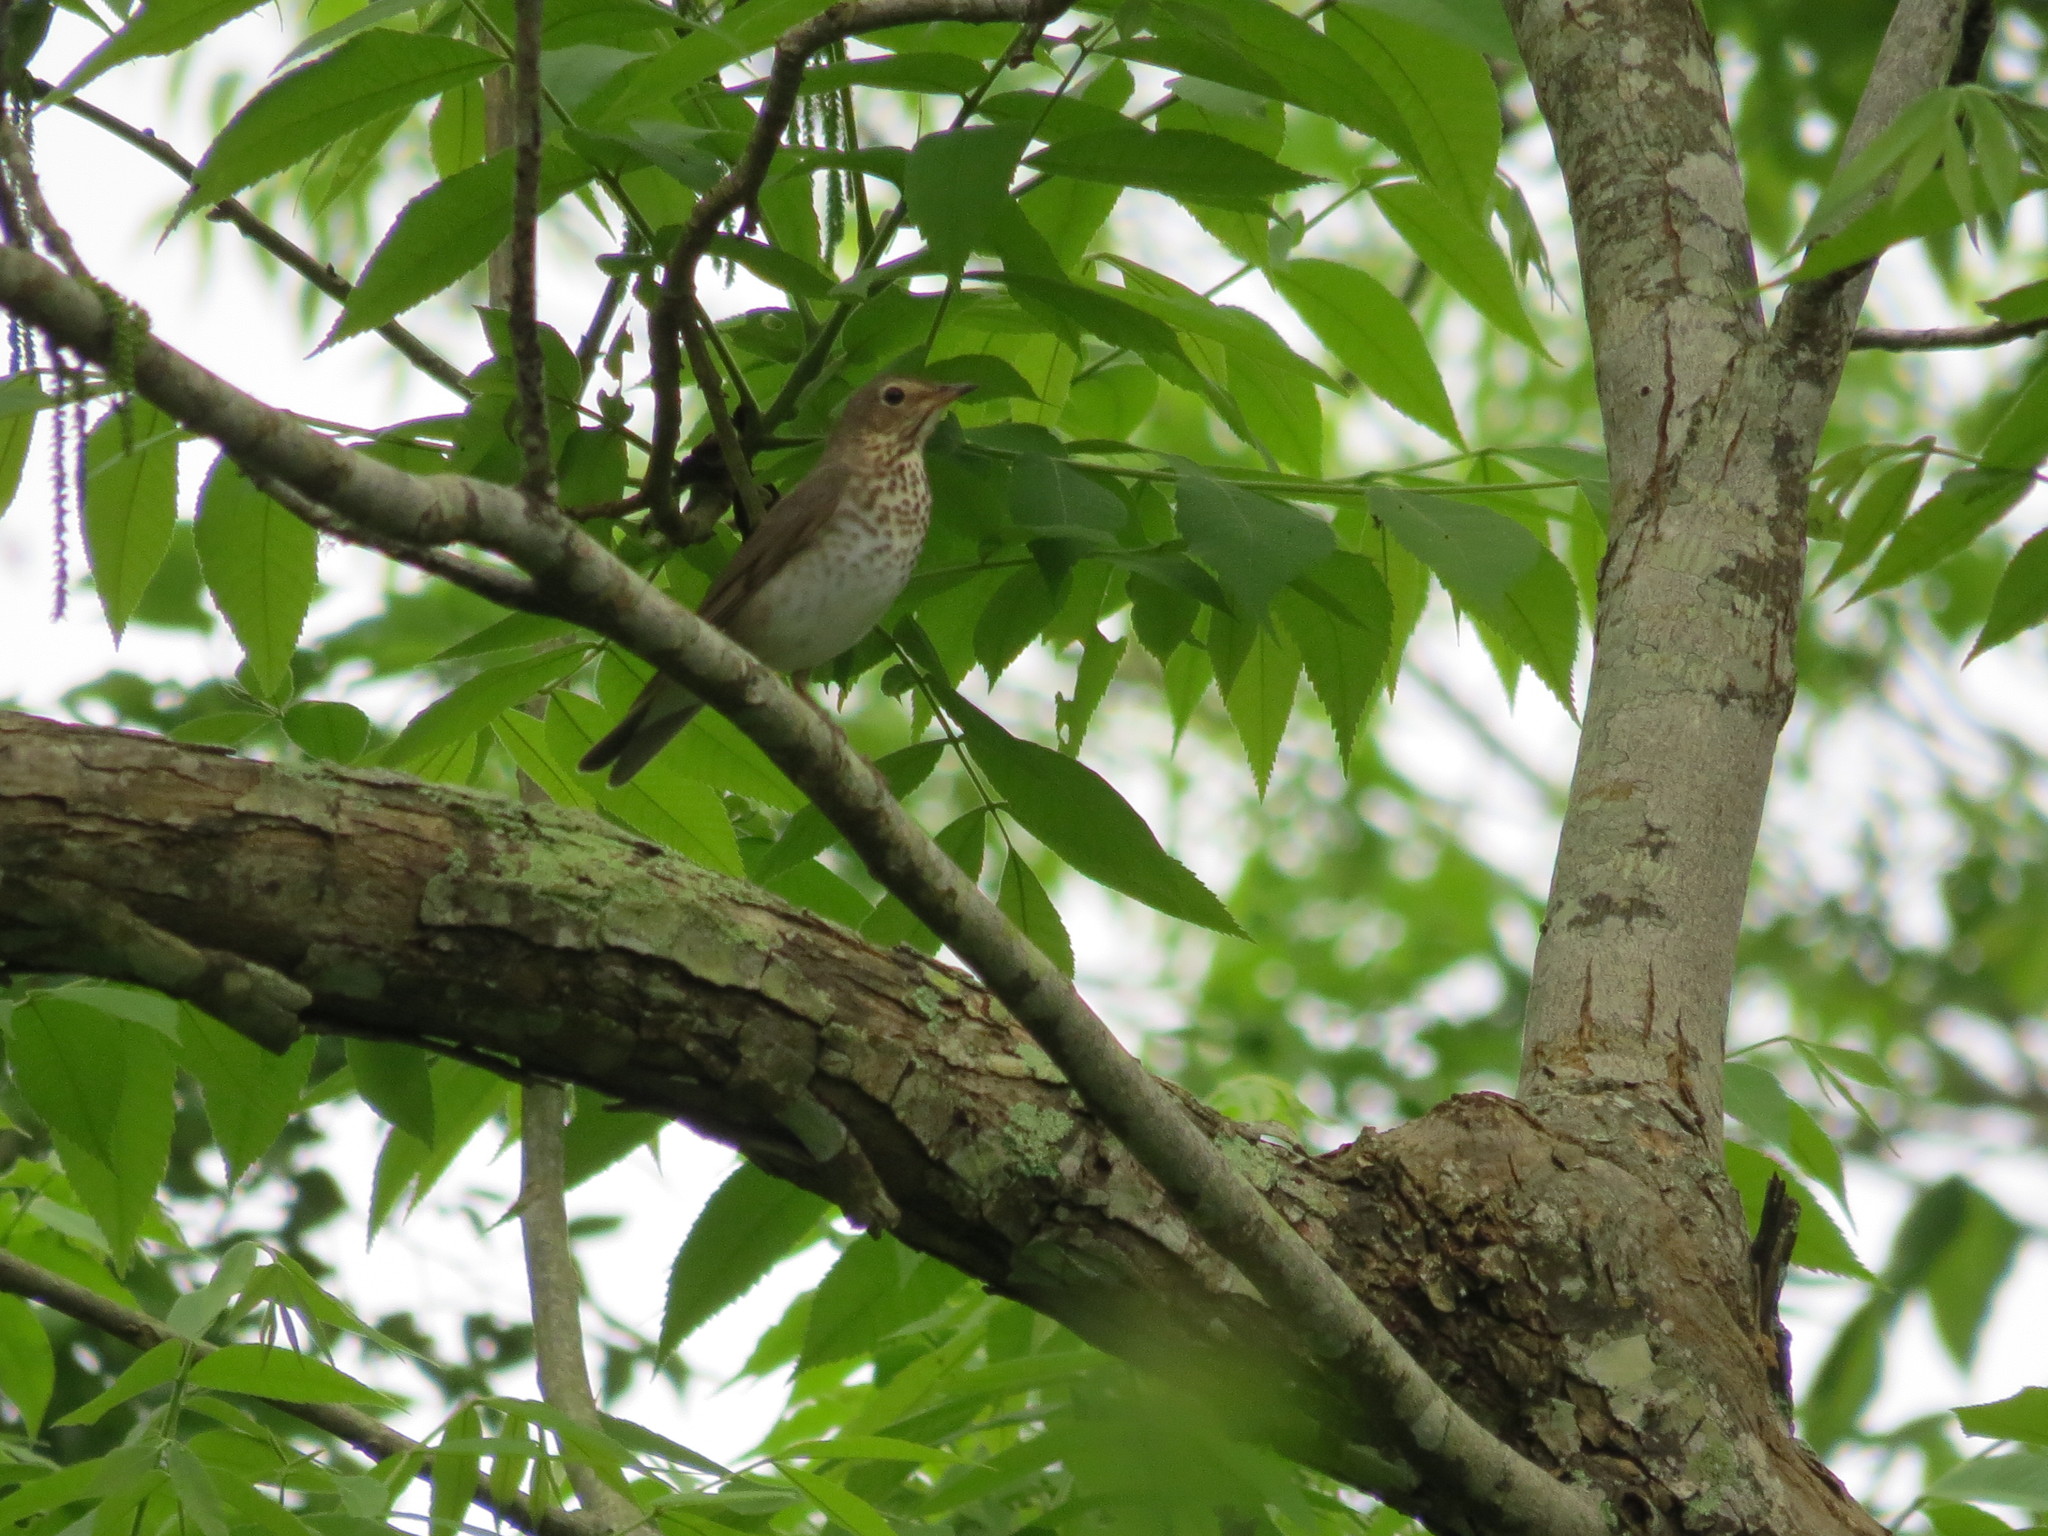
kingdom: Animalia
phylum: Chordata
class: Aves
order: Passeriformes
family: Turdidae
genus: Catharus
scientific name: Catharus ustulatus
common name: Swainson's thrush
